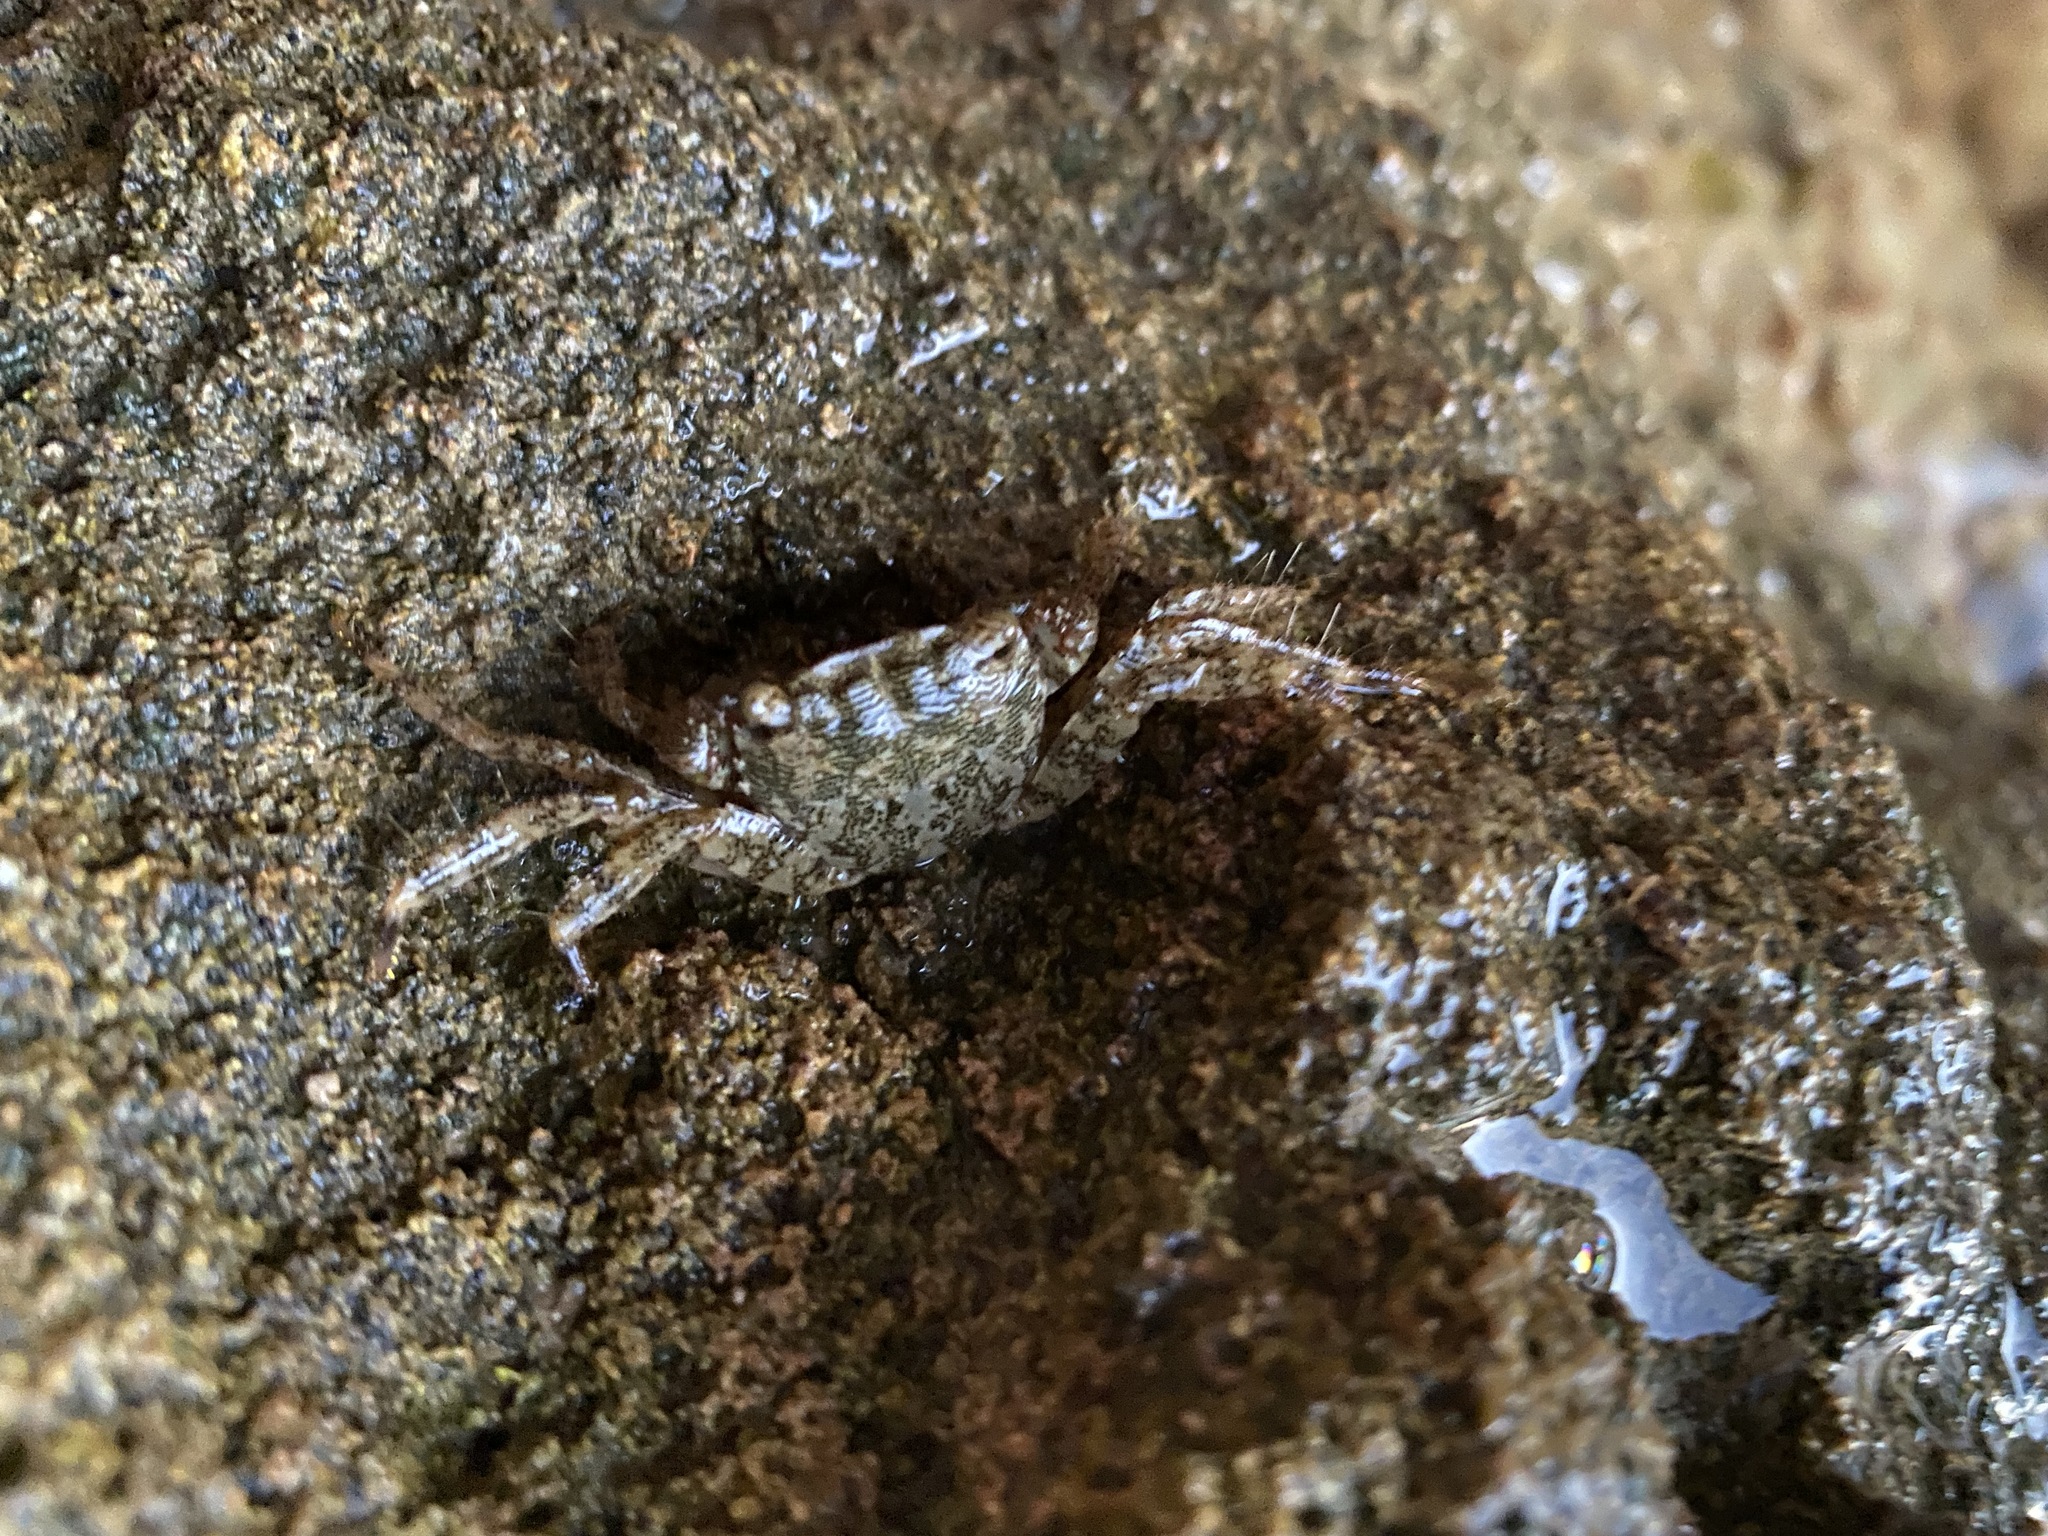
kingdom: Animalia
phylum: Arthropoda
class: Malacostraca
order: Decapoda
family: Grapsidae
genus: Pachygrapsus
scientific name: Pachygrapsus marmoratus
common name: Marbled rock crab
